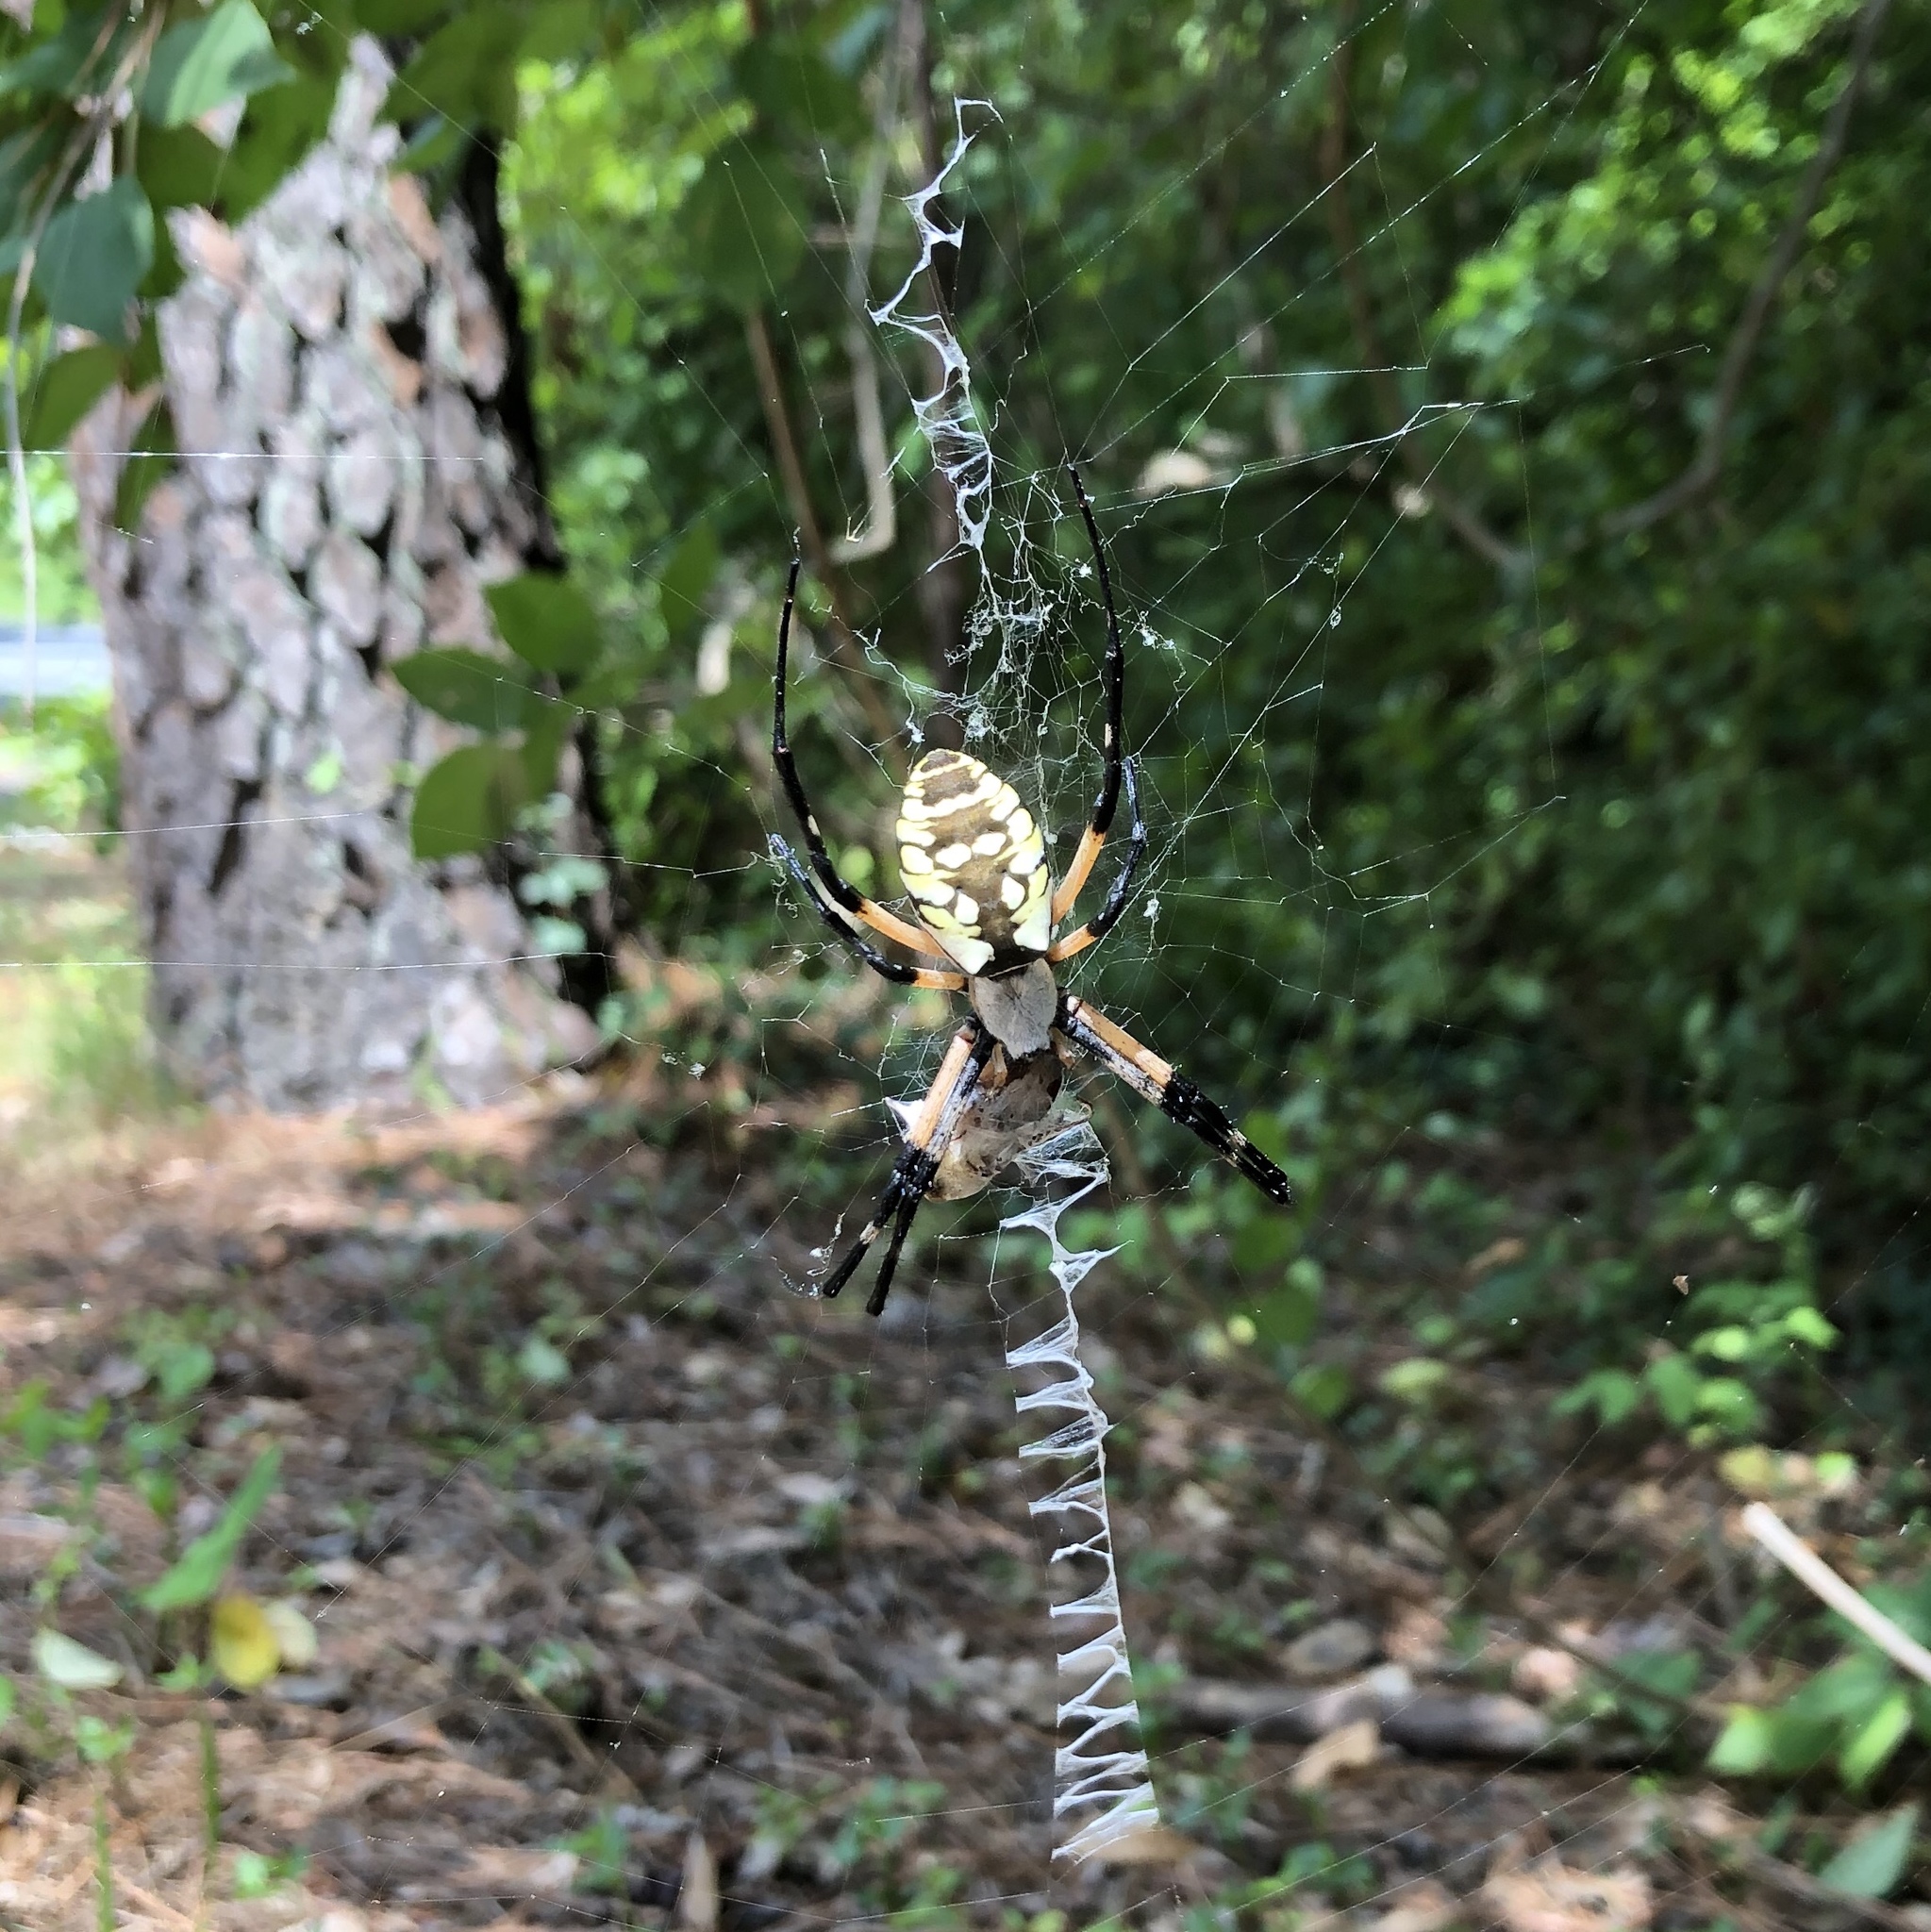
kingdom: Animalia
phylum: Arthropoda
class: Arachnida
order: Araneae
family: Araneidae
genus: Argiope
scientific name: Argiope aurantia
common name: Orb weavers
